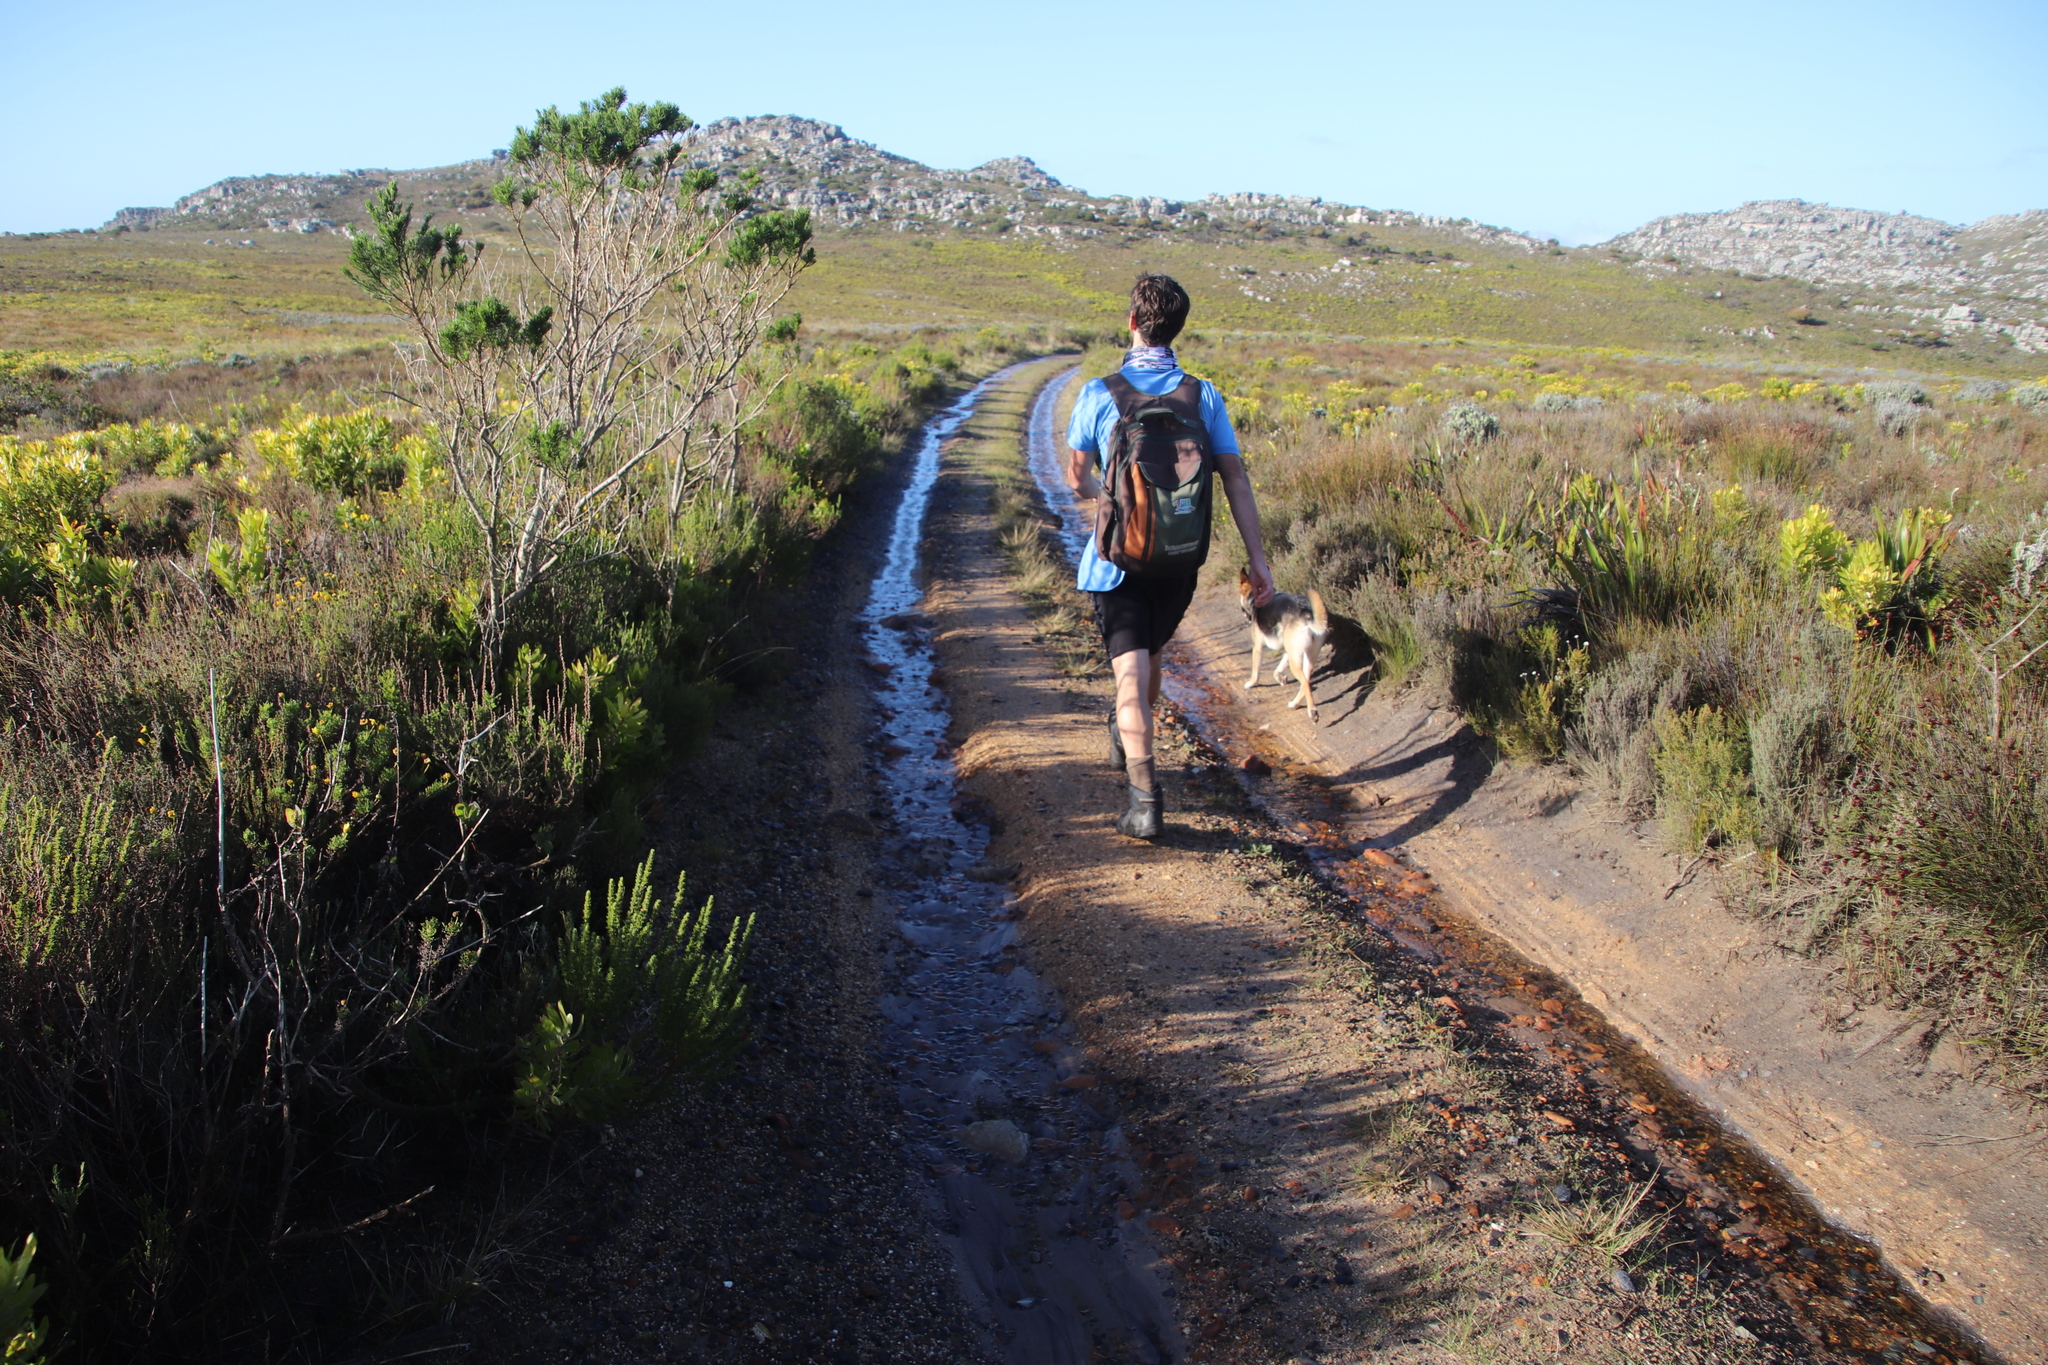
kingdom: Plantae
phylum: Tracheophyta
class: Magnoliopsida
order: Fabales
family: Fabaceae
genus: Psoralea
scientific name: Psoralea pinnata
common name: African scurfpea
